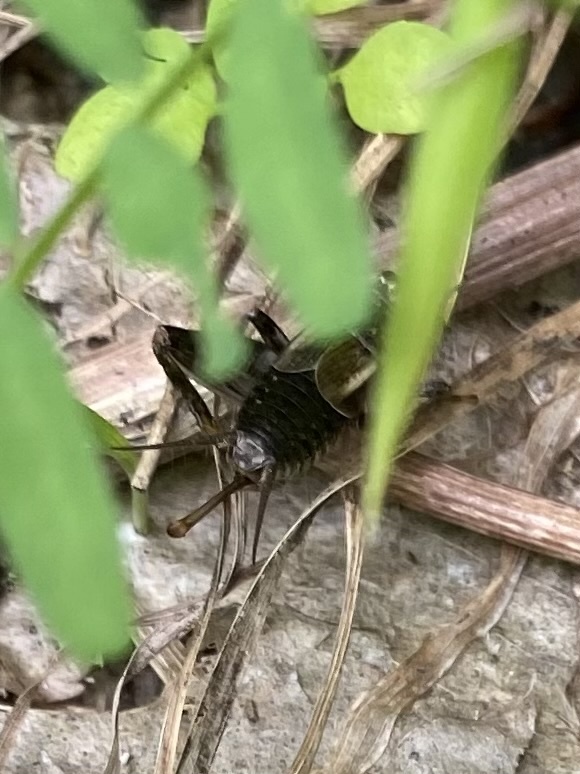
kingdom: Animalia
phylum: Arthropoda
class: Insecta
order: Orthoptera
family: Gryllidae
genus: Modicogryllus
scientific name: Modicogryllus frontalis
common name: Eastern cricket
